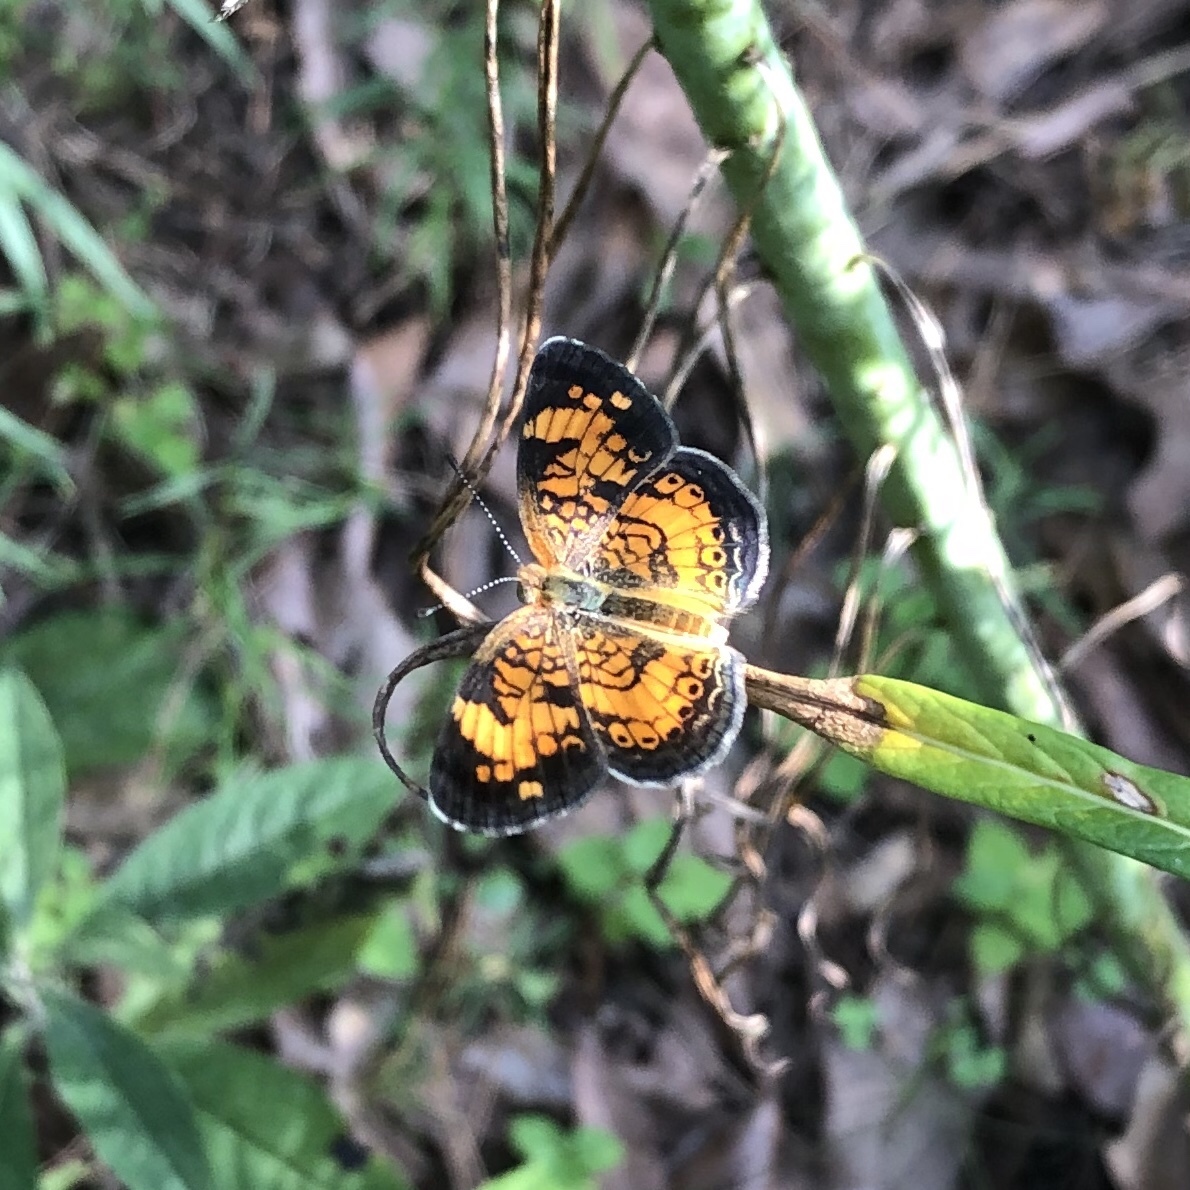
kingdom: Animalia
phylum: Arthropoda
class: Insecta
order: Lepidoptera
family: Nymphalidae
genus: Phyciodes
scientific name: Phyciodes tharos
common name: Pearl crescent
